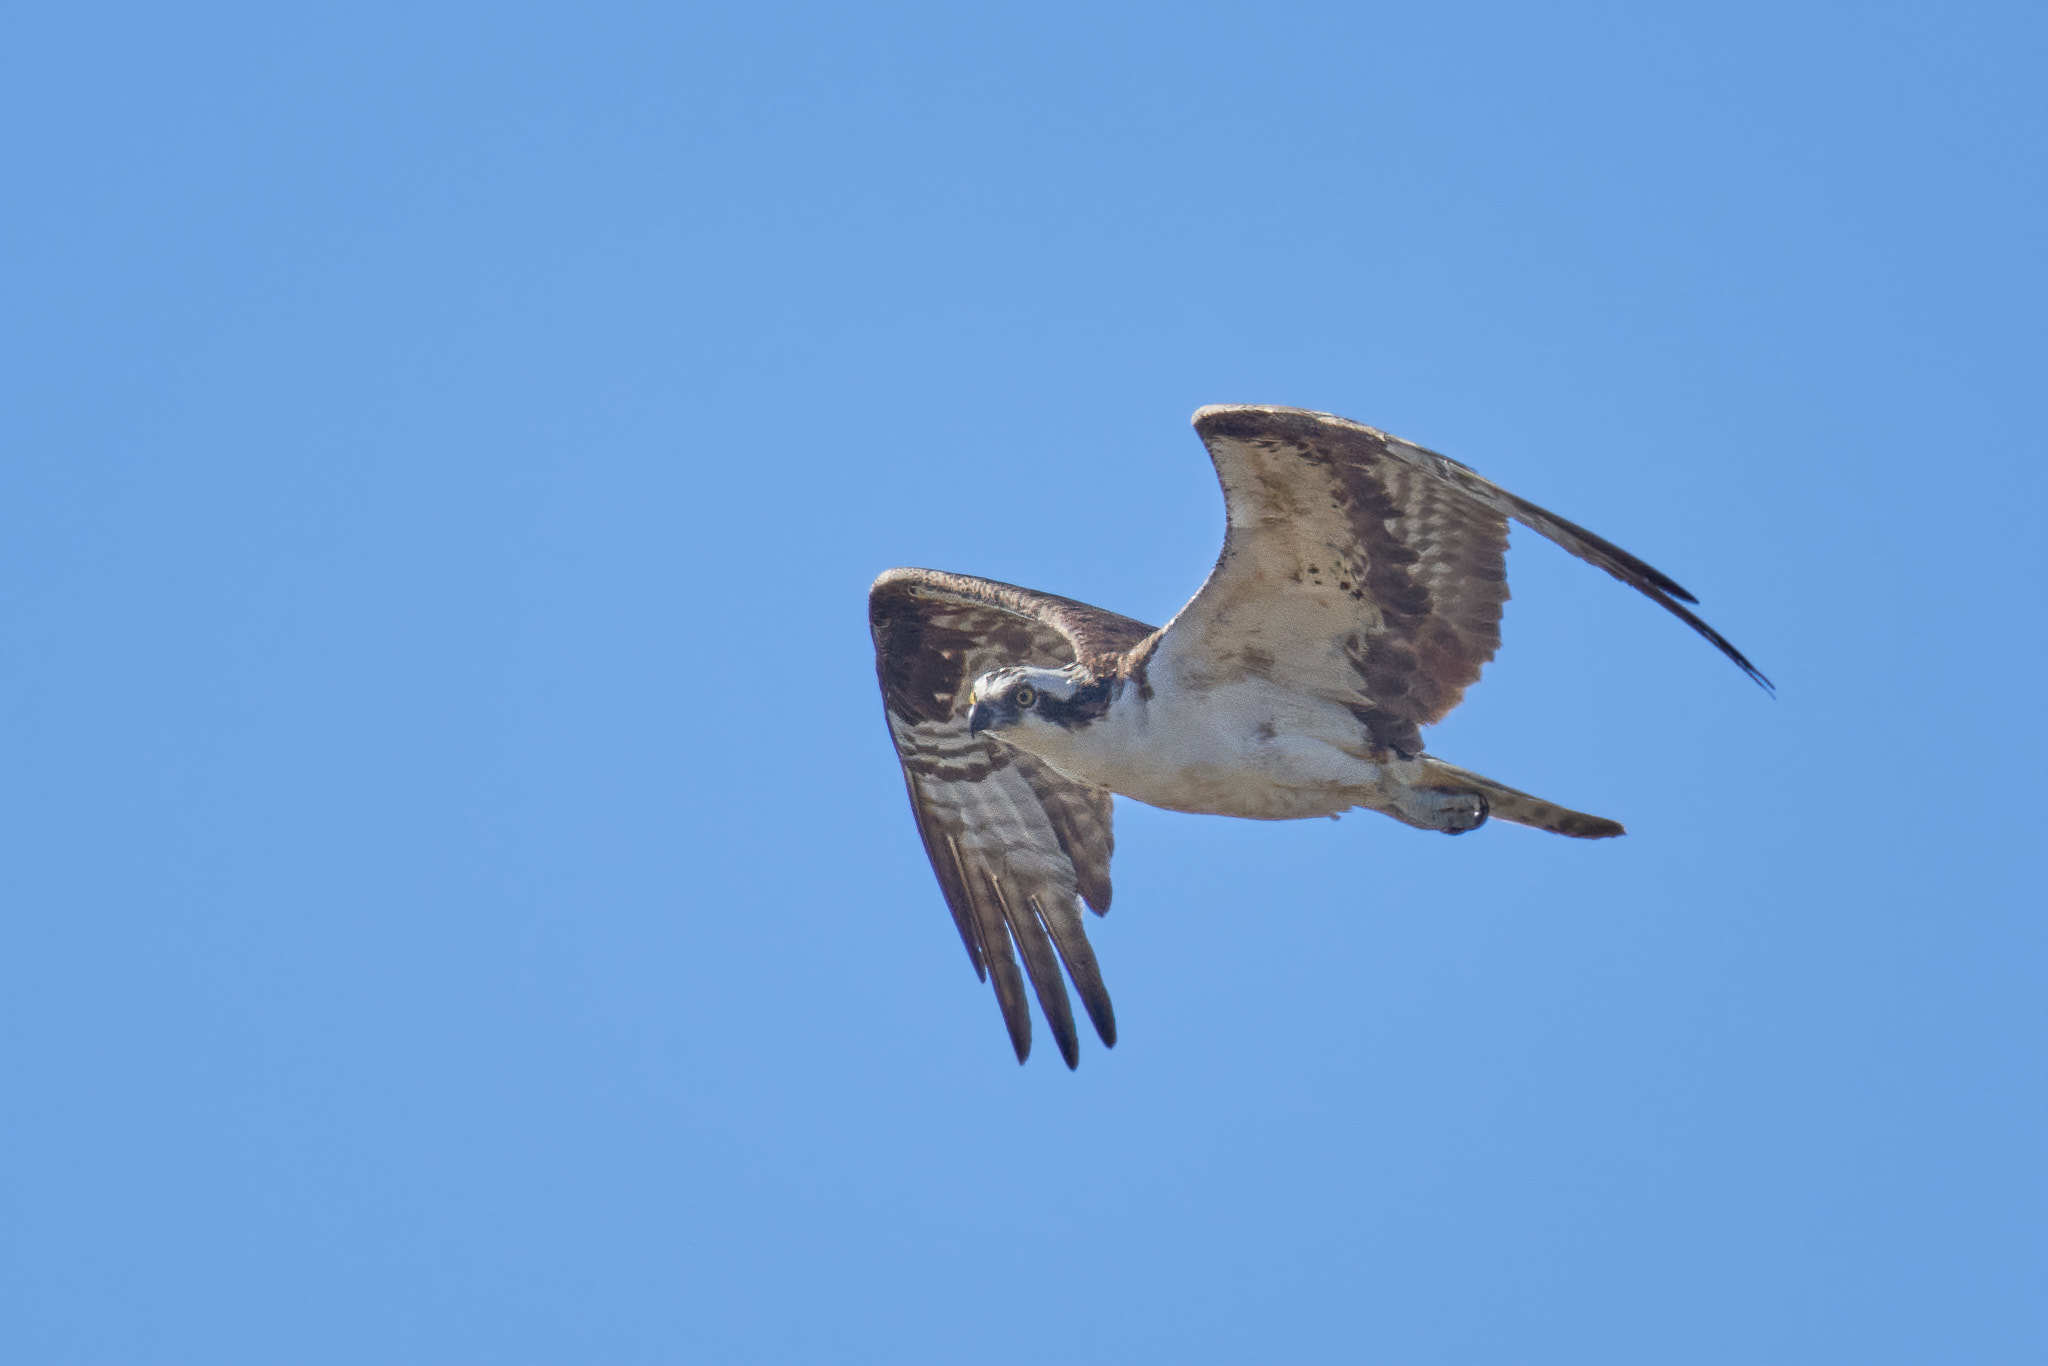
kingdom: Animalia
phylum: Chordata
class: Aves
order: Accipitriformes
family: Pandionidae
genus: Pandion
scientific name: Pandion haliaetus
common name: Osprey
